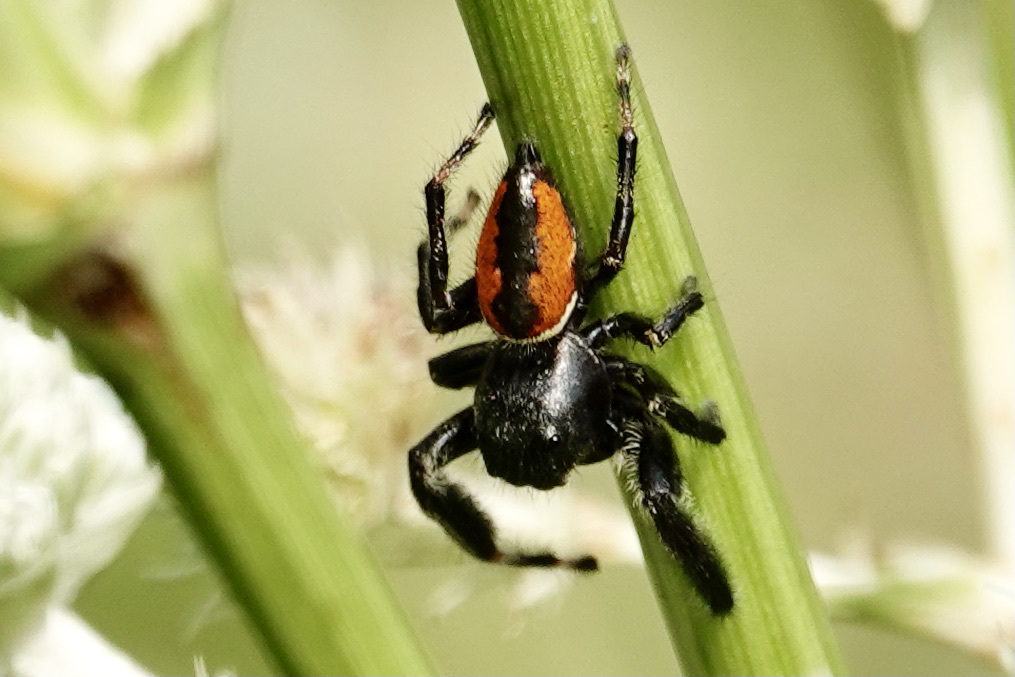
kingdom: Animalia
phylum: Arthropoda
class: Arachnida
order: Araneae
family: Salticidae
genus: Phidippus
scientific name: Phidippus clarus
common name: Brilliant jumping spider
